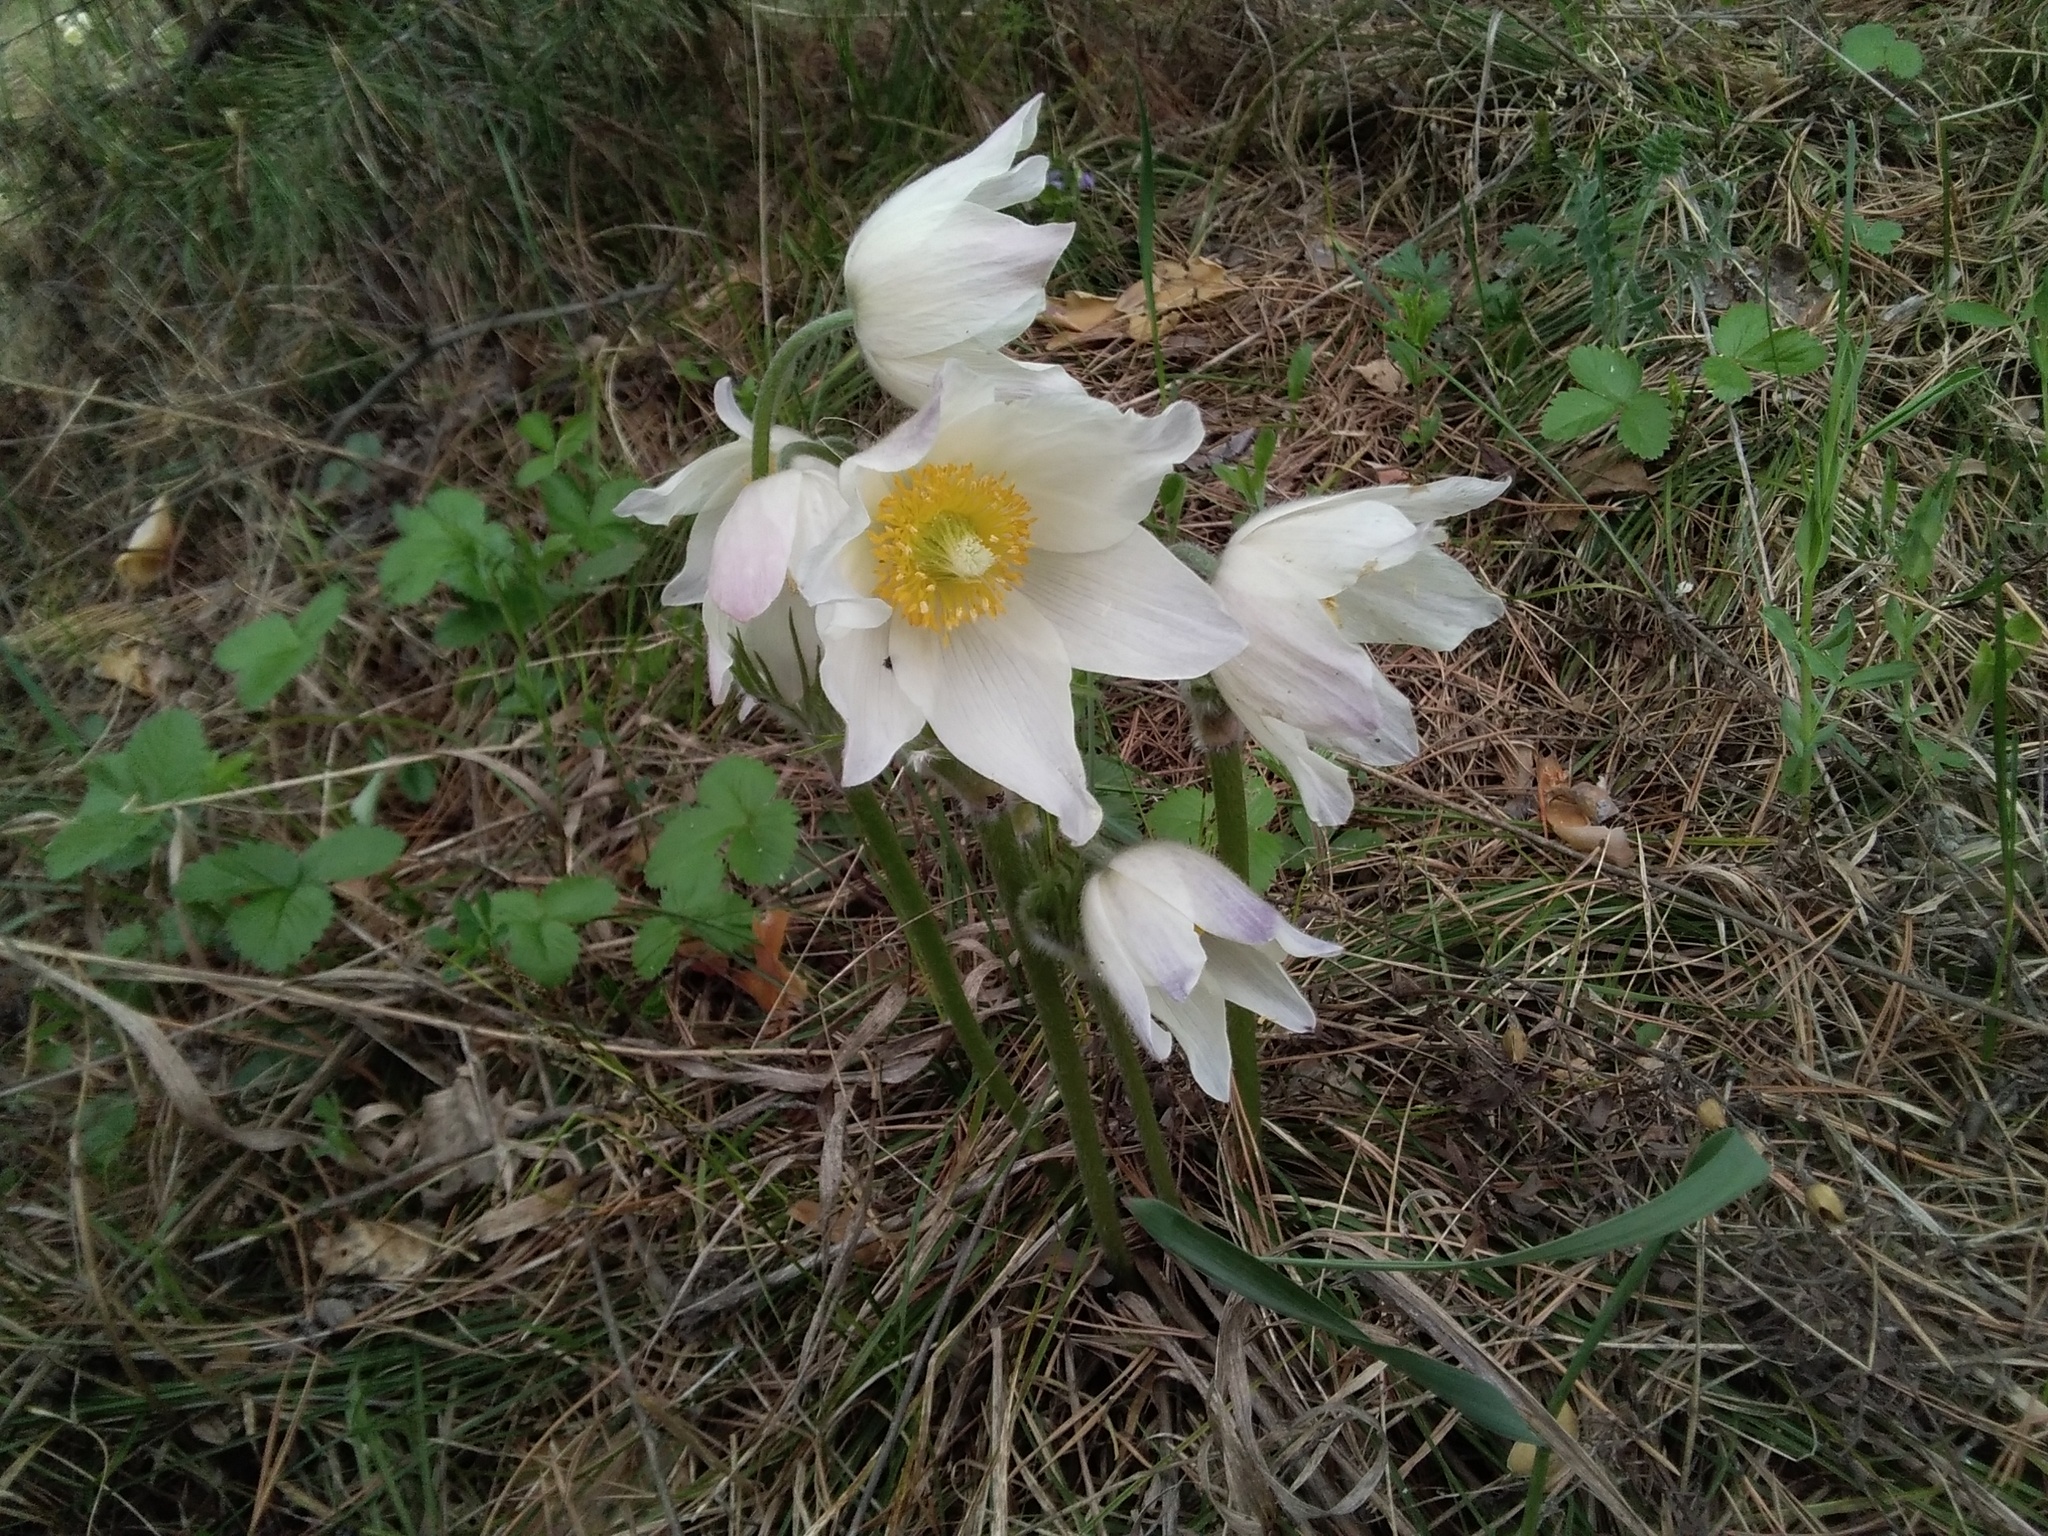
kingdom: Plantae
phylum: Tracheophyta
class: Magnoliopsida
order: Ranunculales
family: Ranunculaceae
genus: Pulsatilla
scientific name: Pulsatilla patens
